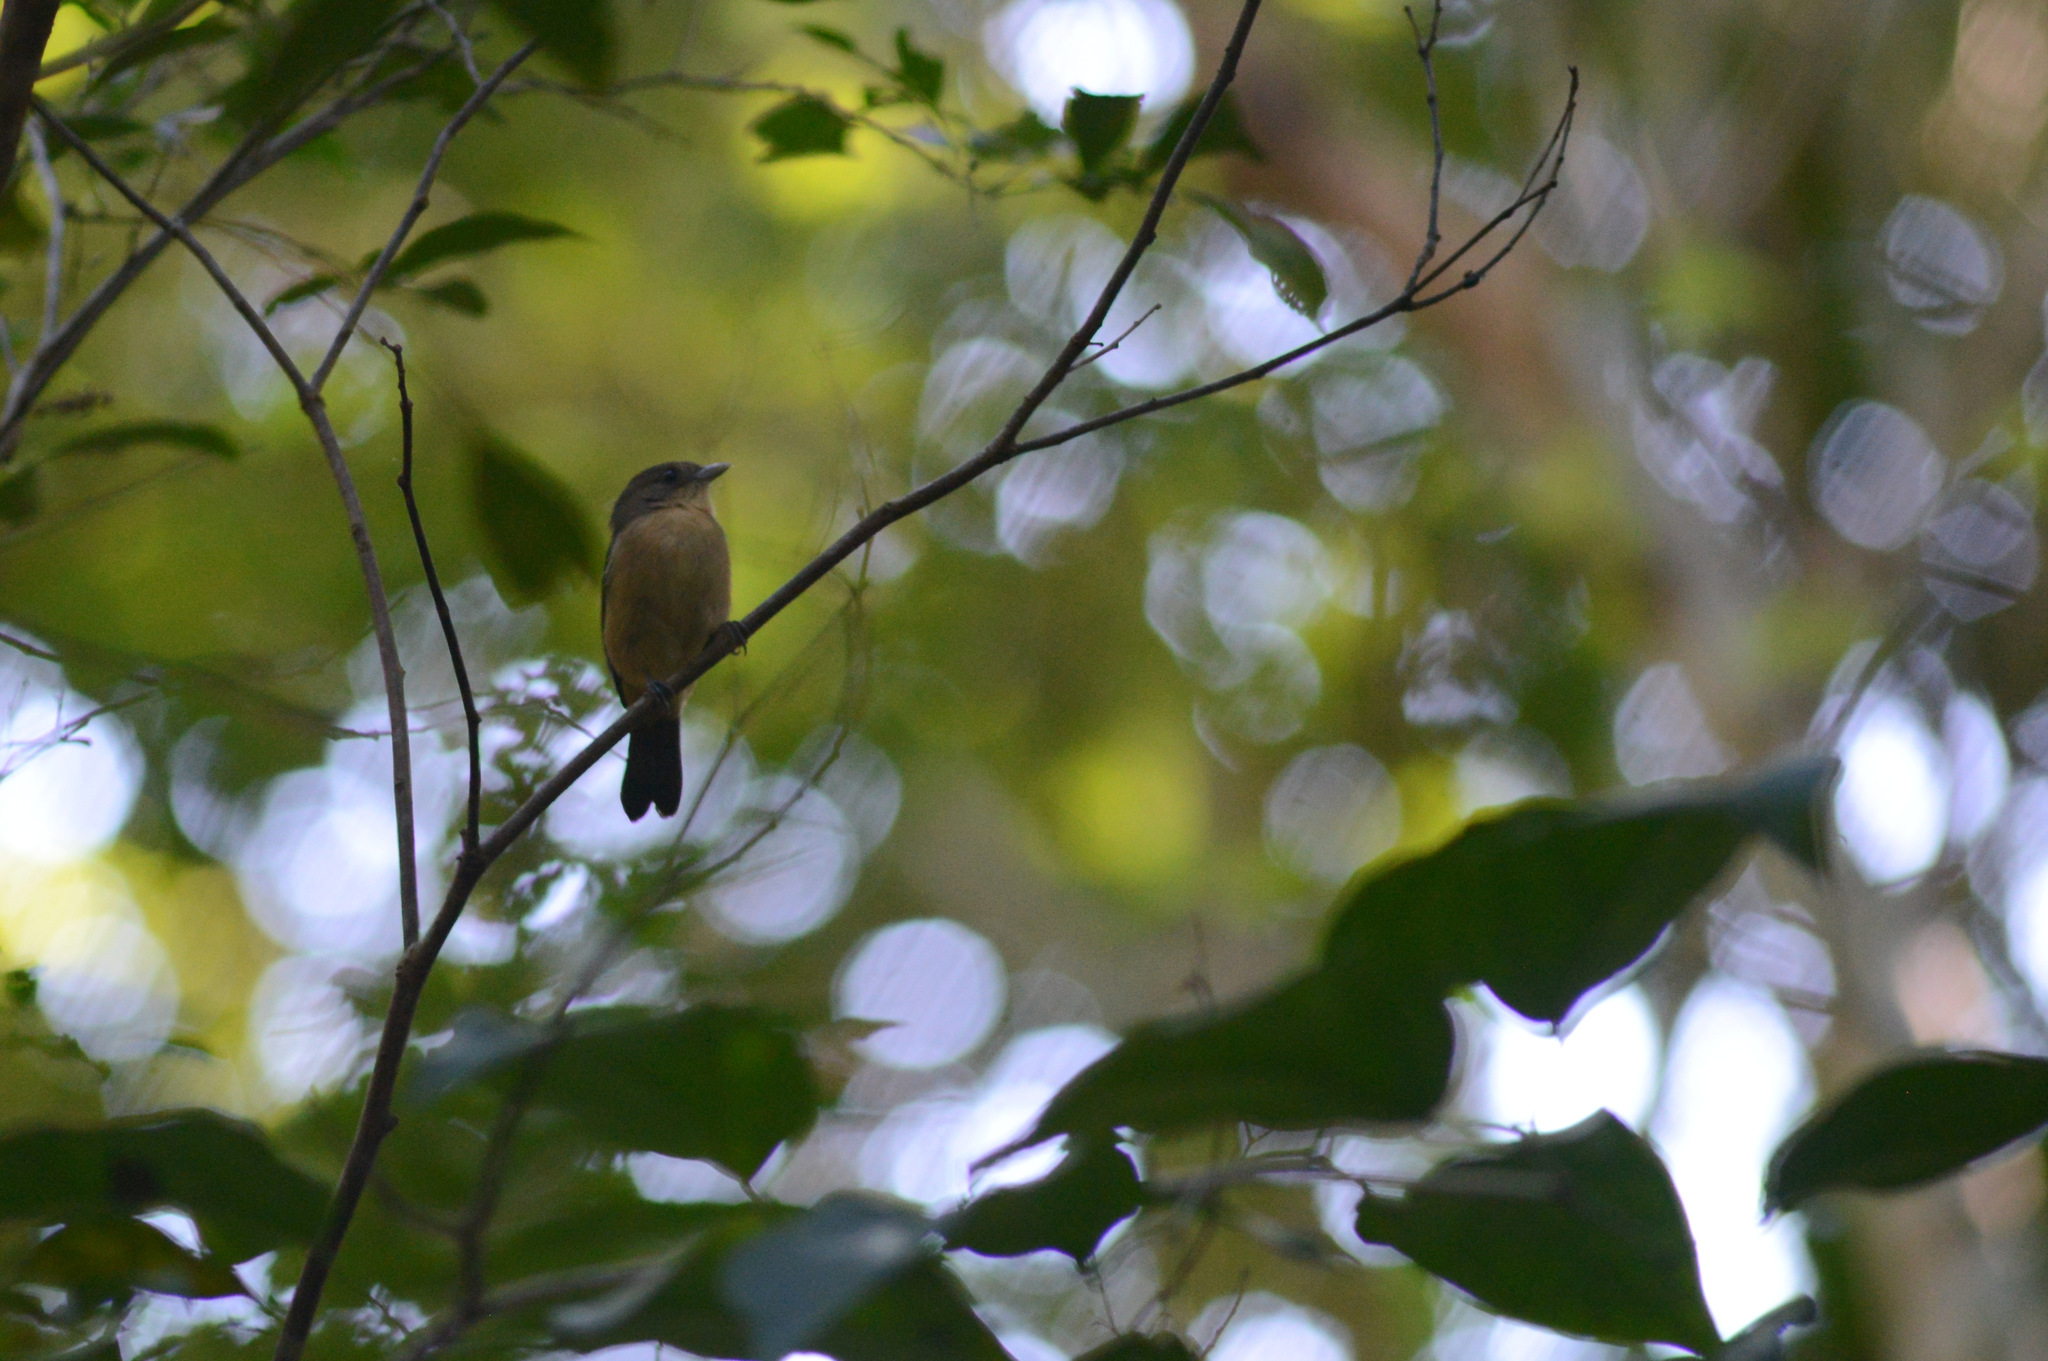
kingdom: Animalia
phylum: Chordata
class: Aves
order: Passeriformes
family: Thraupidae
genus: Trichothraupis
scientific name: Trichothraupis melanops
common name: Black-goggled tanager
